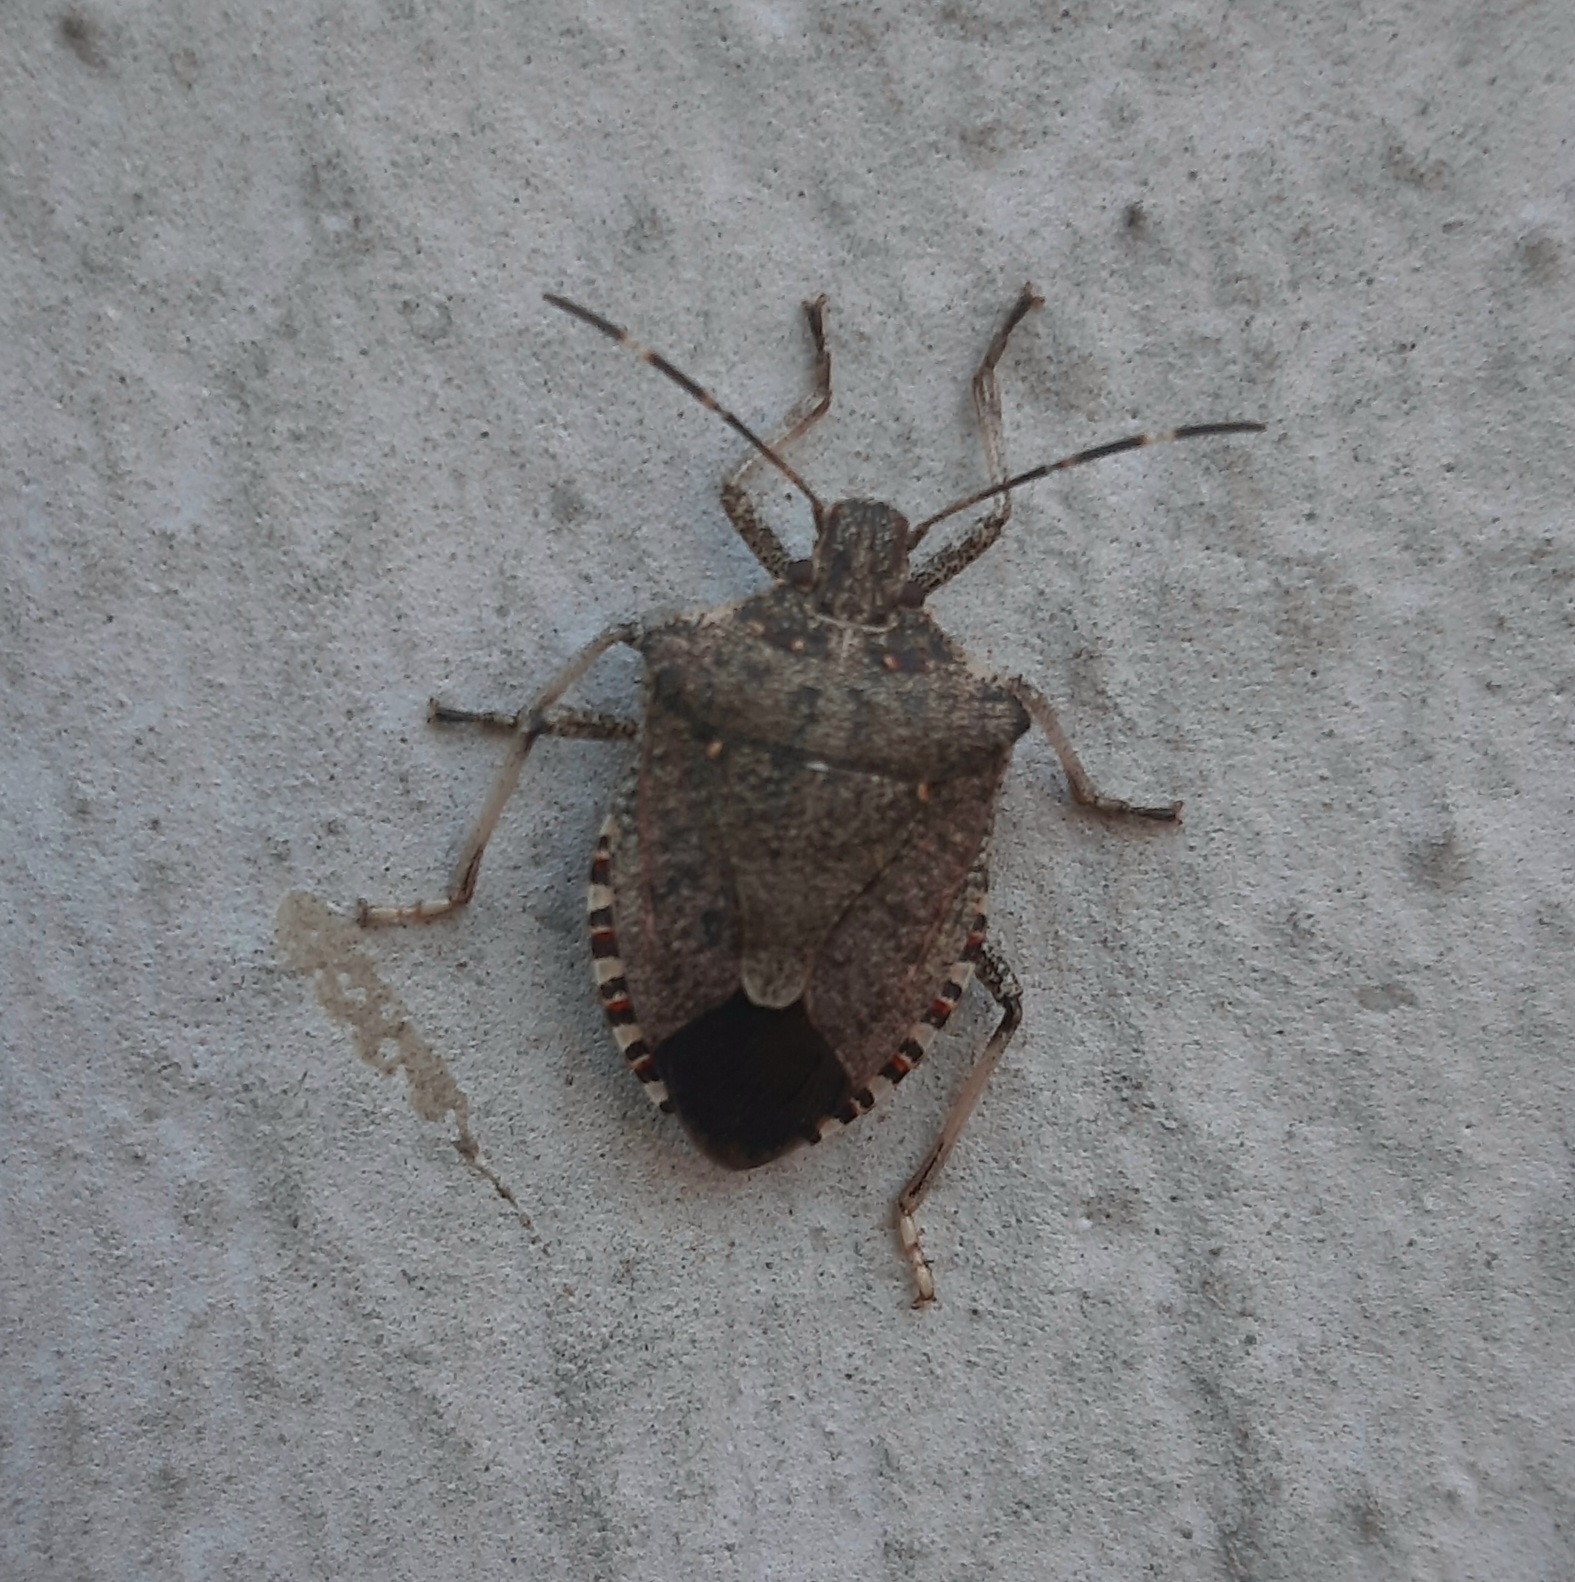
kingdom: Animalia
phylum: Arthropoda
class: Insecta
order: Hemiptera
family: Pentatomidae
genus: Halyomorpha
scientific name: Halyomorpha halys
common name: Brown marmorated stink bug
